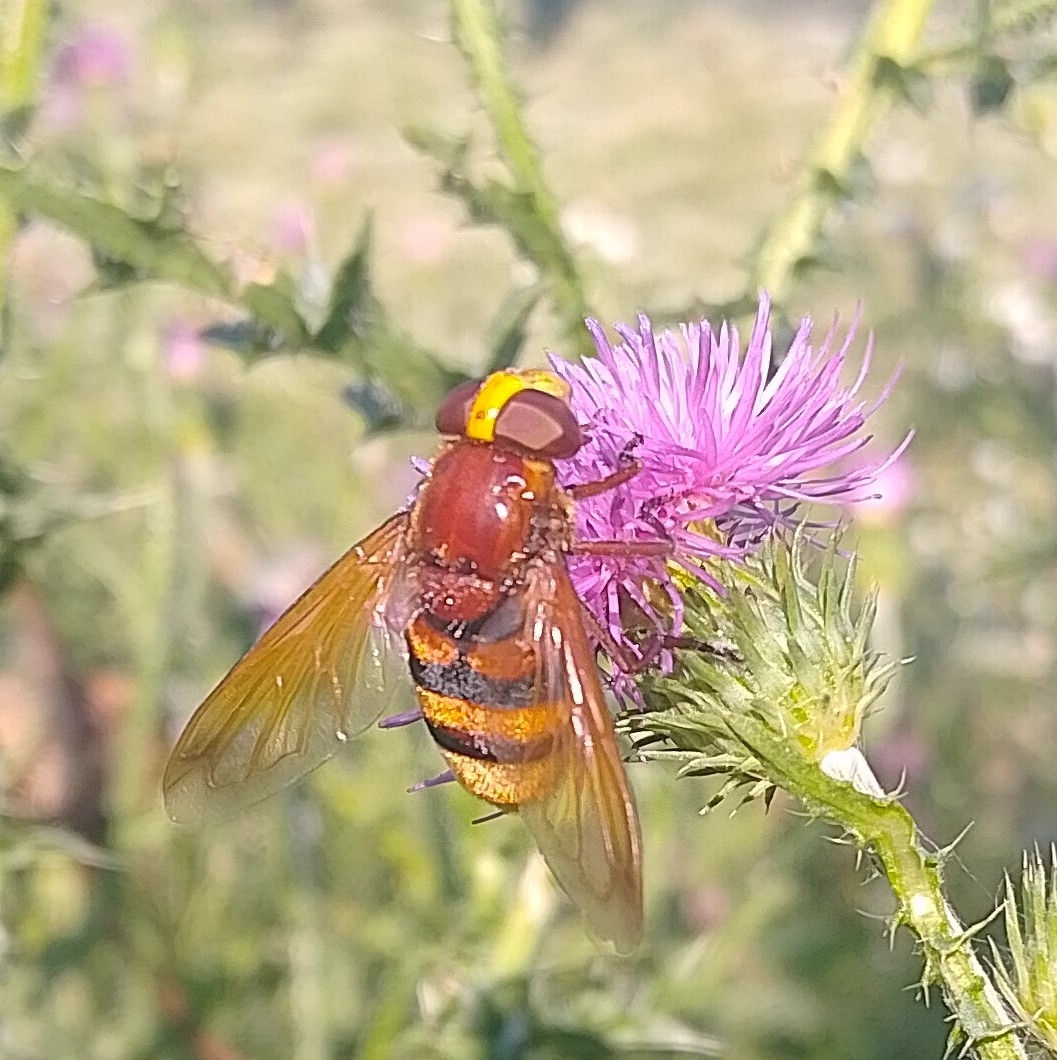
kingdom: Animalia
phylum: Arthropoda
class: Insecta
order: Diptera
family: Syrphidae
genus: Volucella
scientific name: Volucella zonaria
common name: Hornet hoverfly
